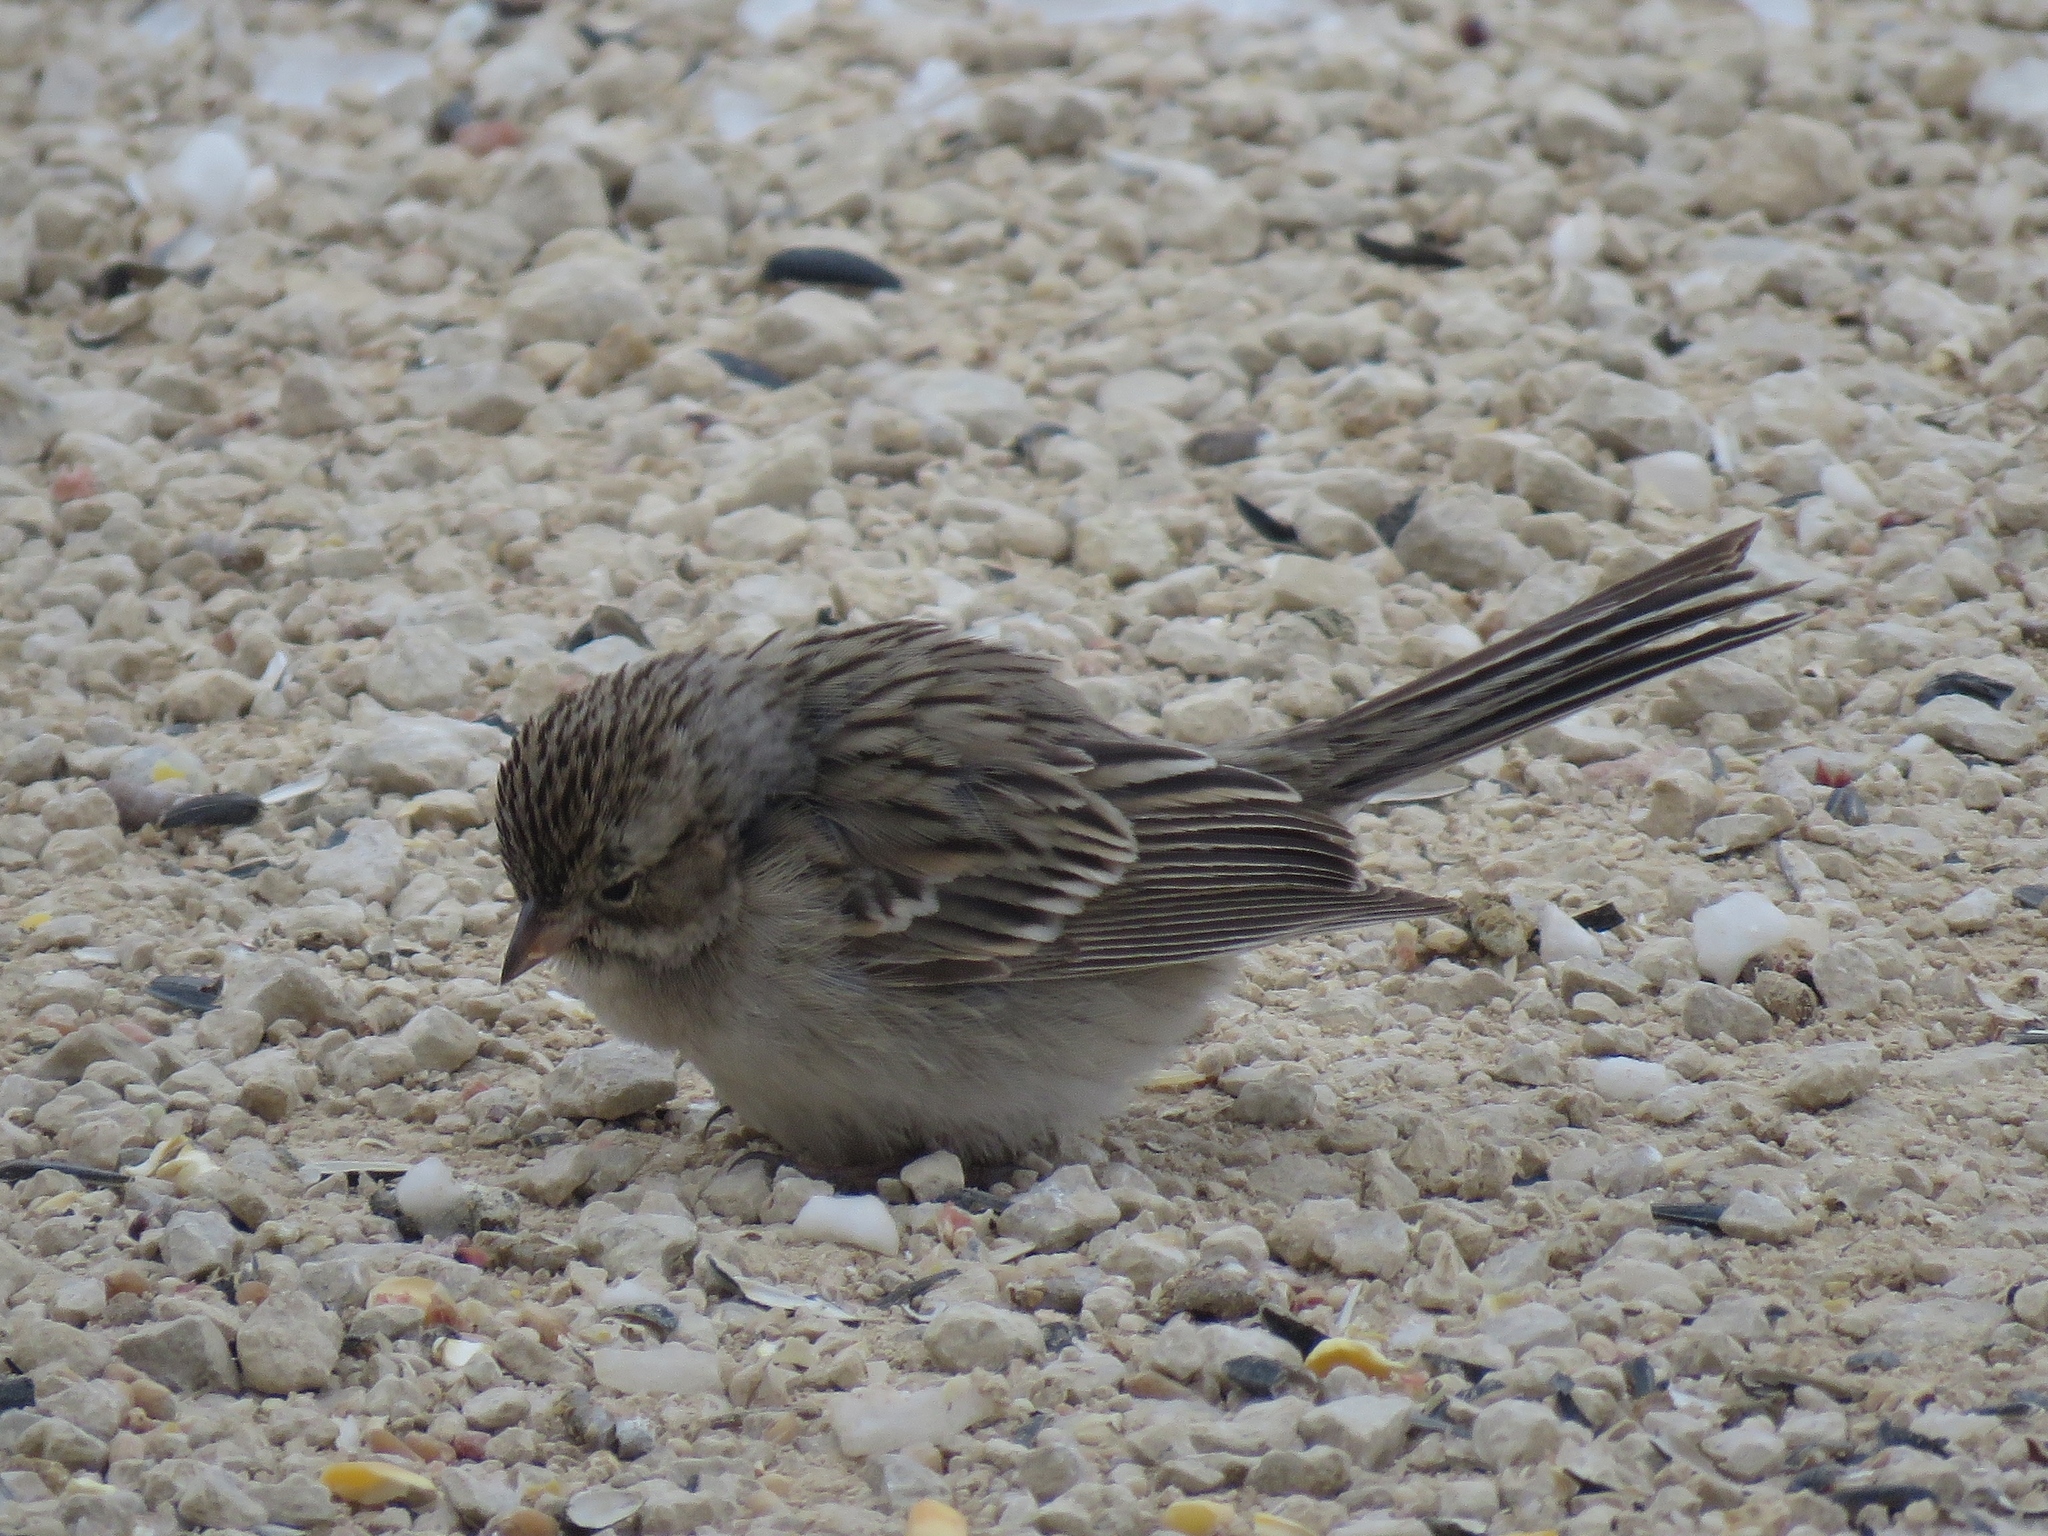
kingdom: Animalia
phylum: Chordata
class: Aves
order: Passeriformes
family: Passerellidae
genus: Spizella
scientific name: Spizella breweri
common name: Brewer's sparrow
